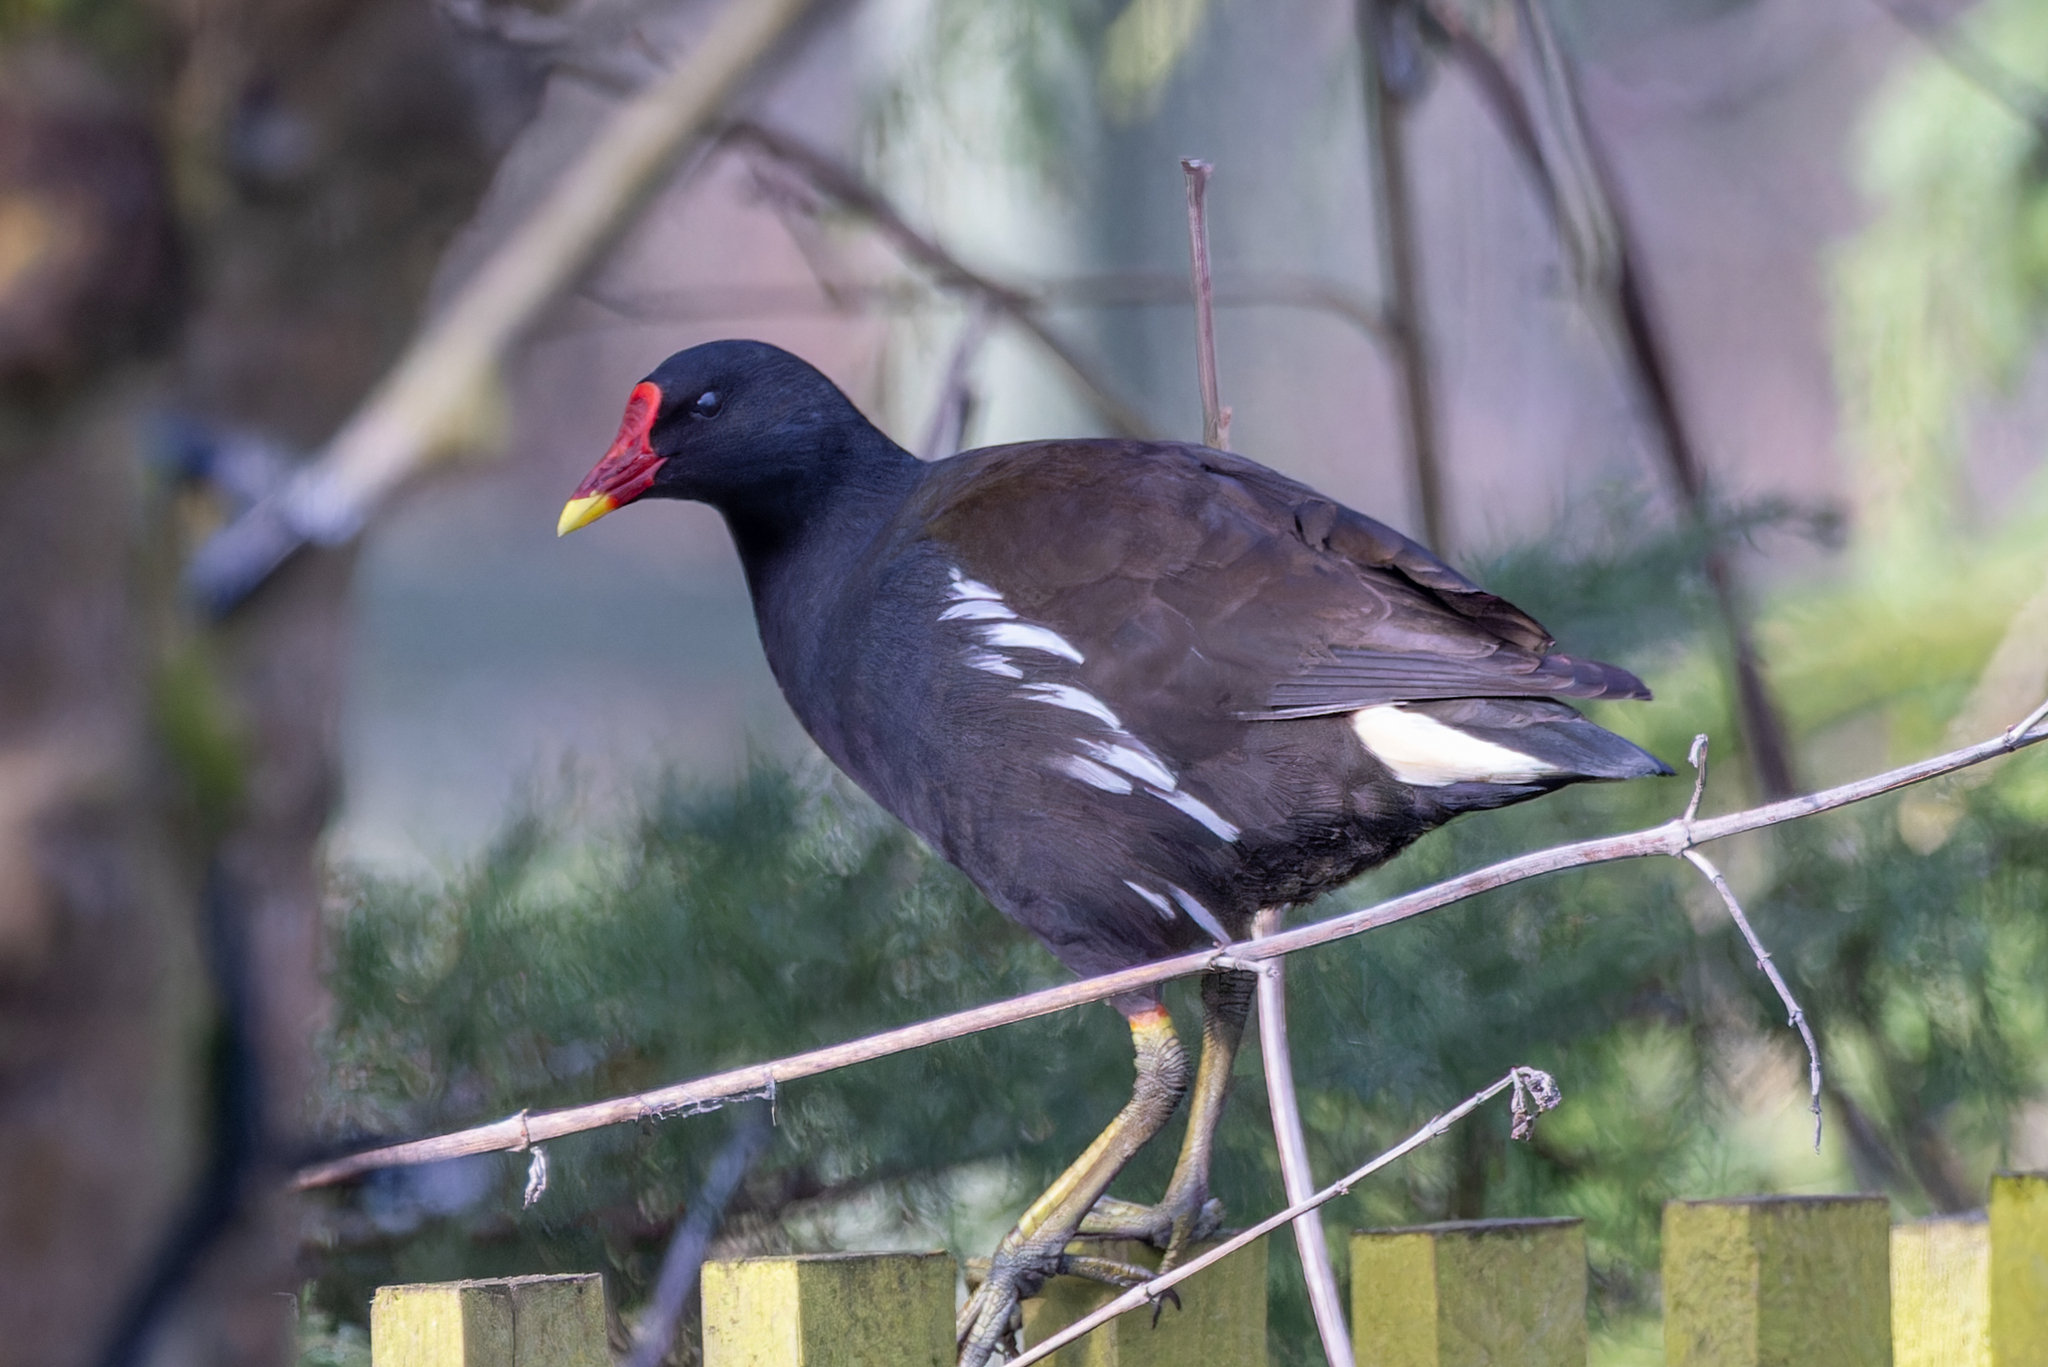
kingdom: Animalia
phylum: Chordata
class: Aves
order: Gruiformes
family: Rallidae
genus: Gallinula
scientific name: Gallinula chloropus
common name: Common moorhen
